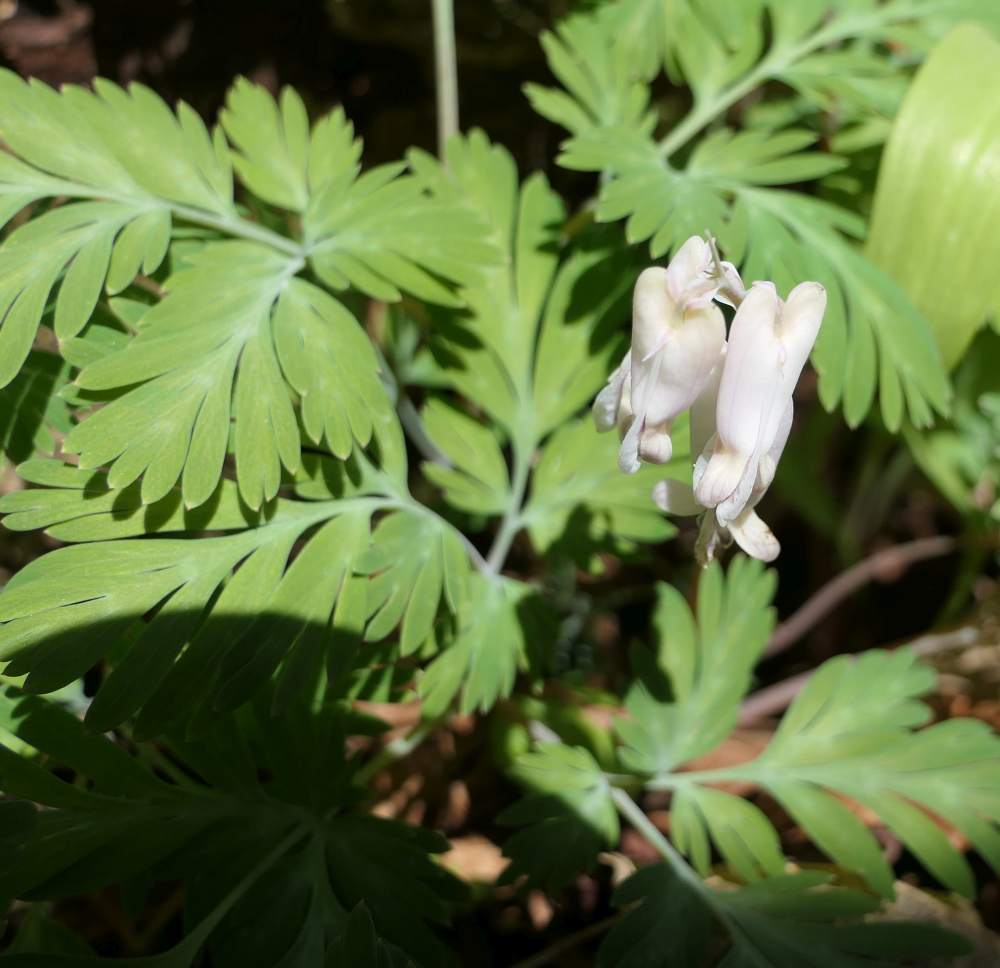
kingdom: Plantae
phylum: Tracheophyta
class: Magnoliopsida
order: Ranunculales
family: Papaveraceae
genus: Dicentra
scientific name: Dicentra canadensis
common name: Squirrel-corn
